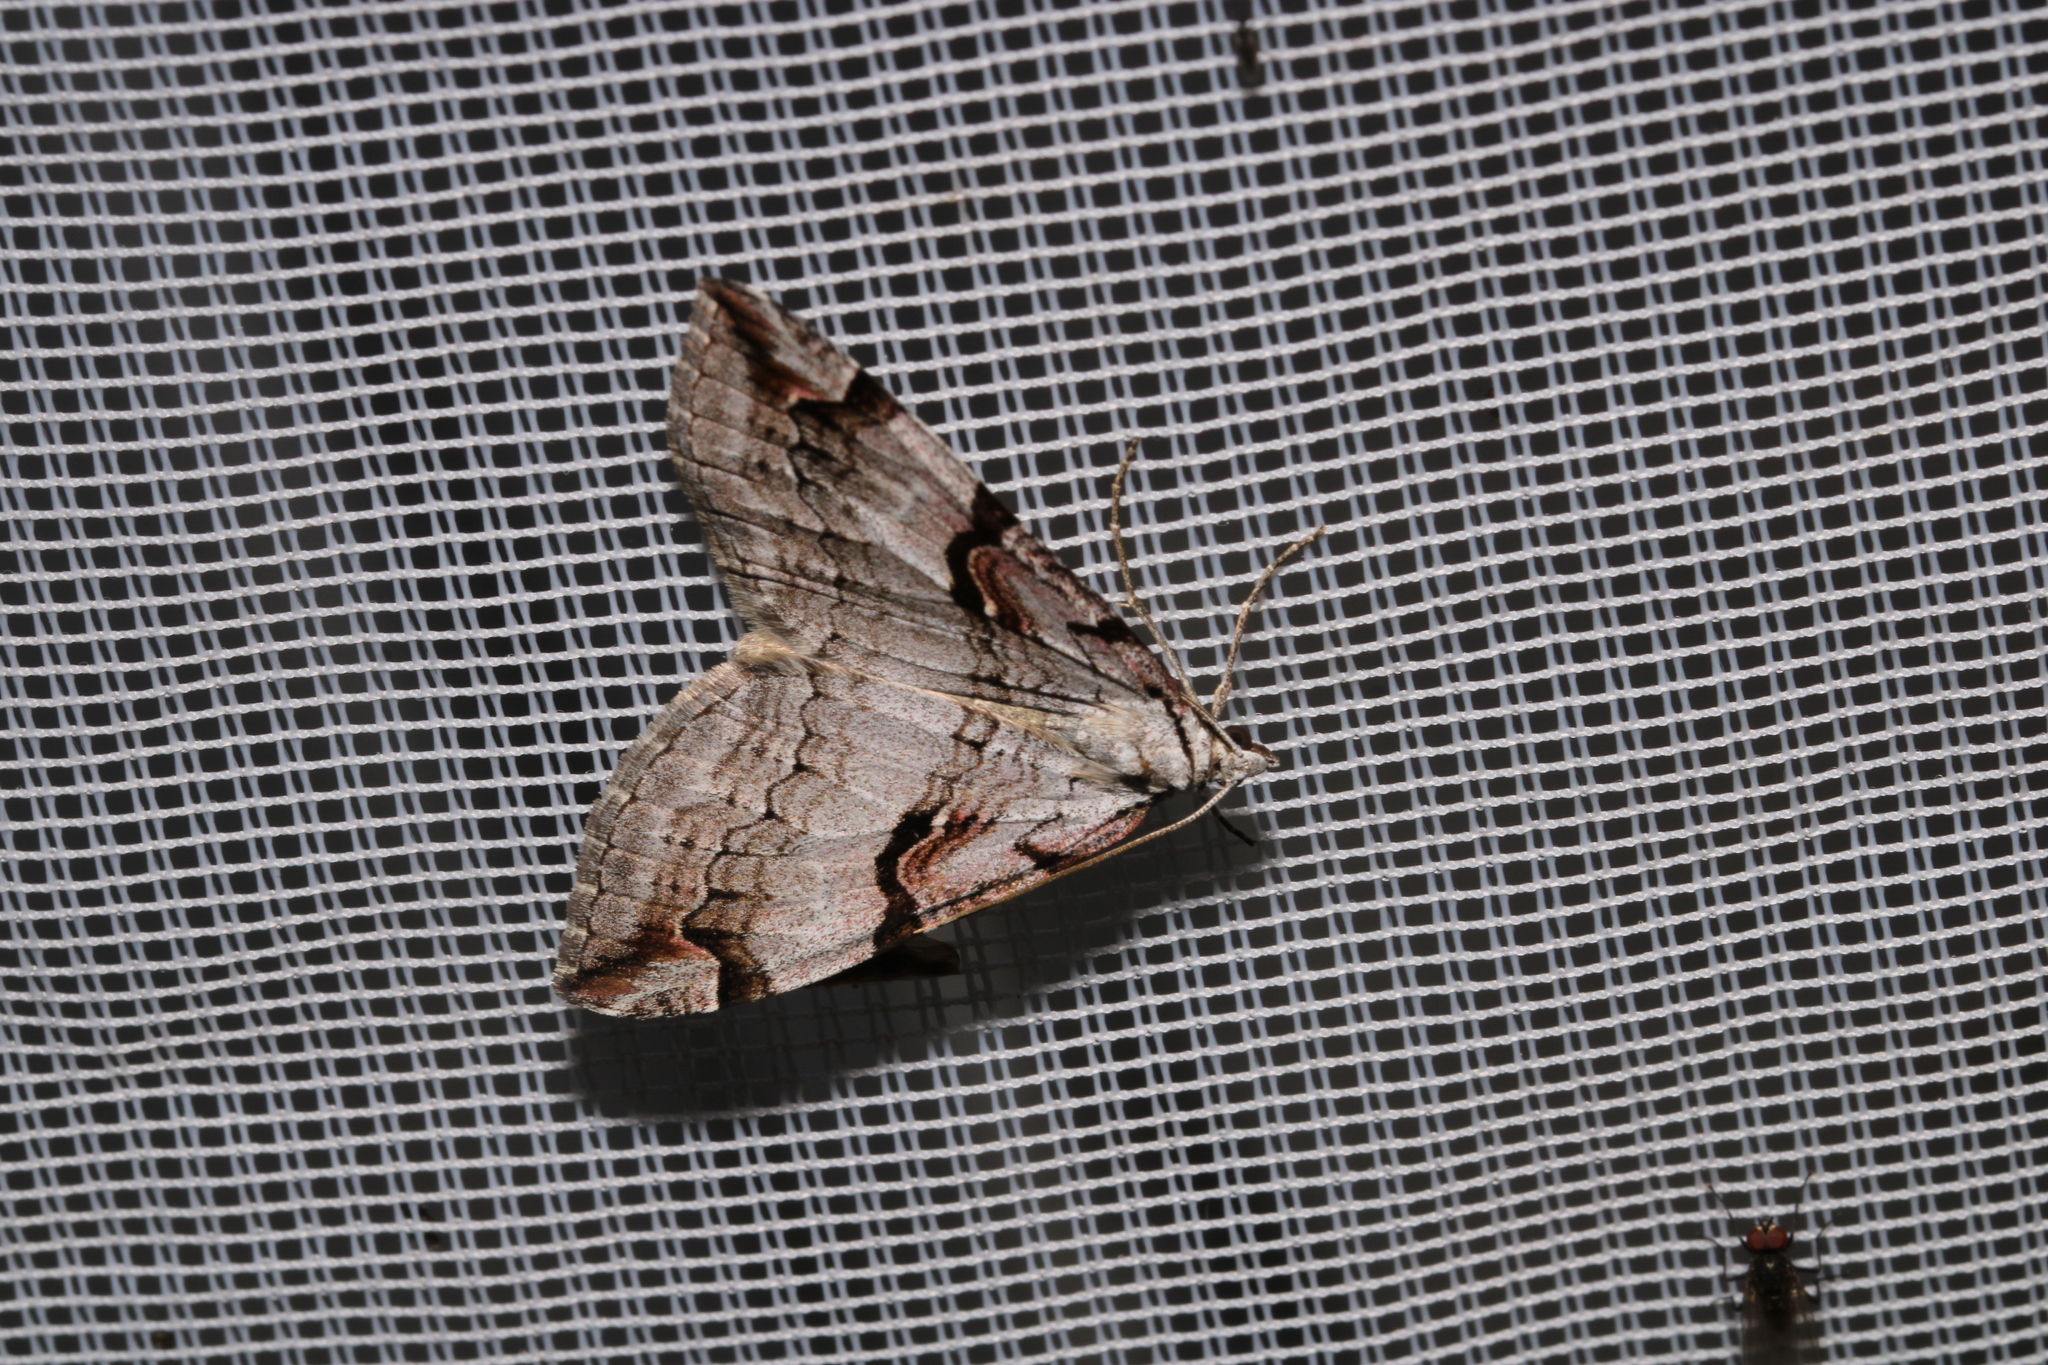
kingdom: Animalia
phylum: Arthropoda
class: Insecta
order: Lepidoptera
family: Geometridae
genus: Aplocera
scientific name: Aplocera praeformata
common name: Purple treble-bar
